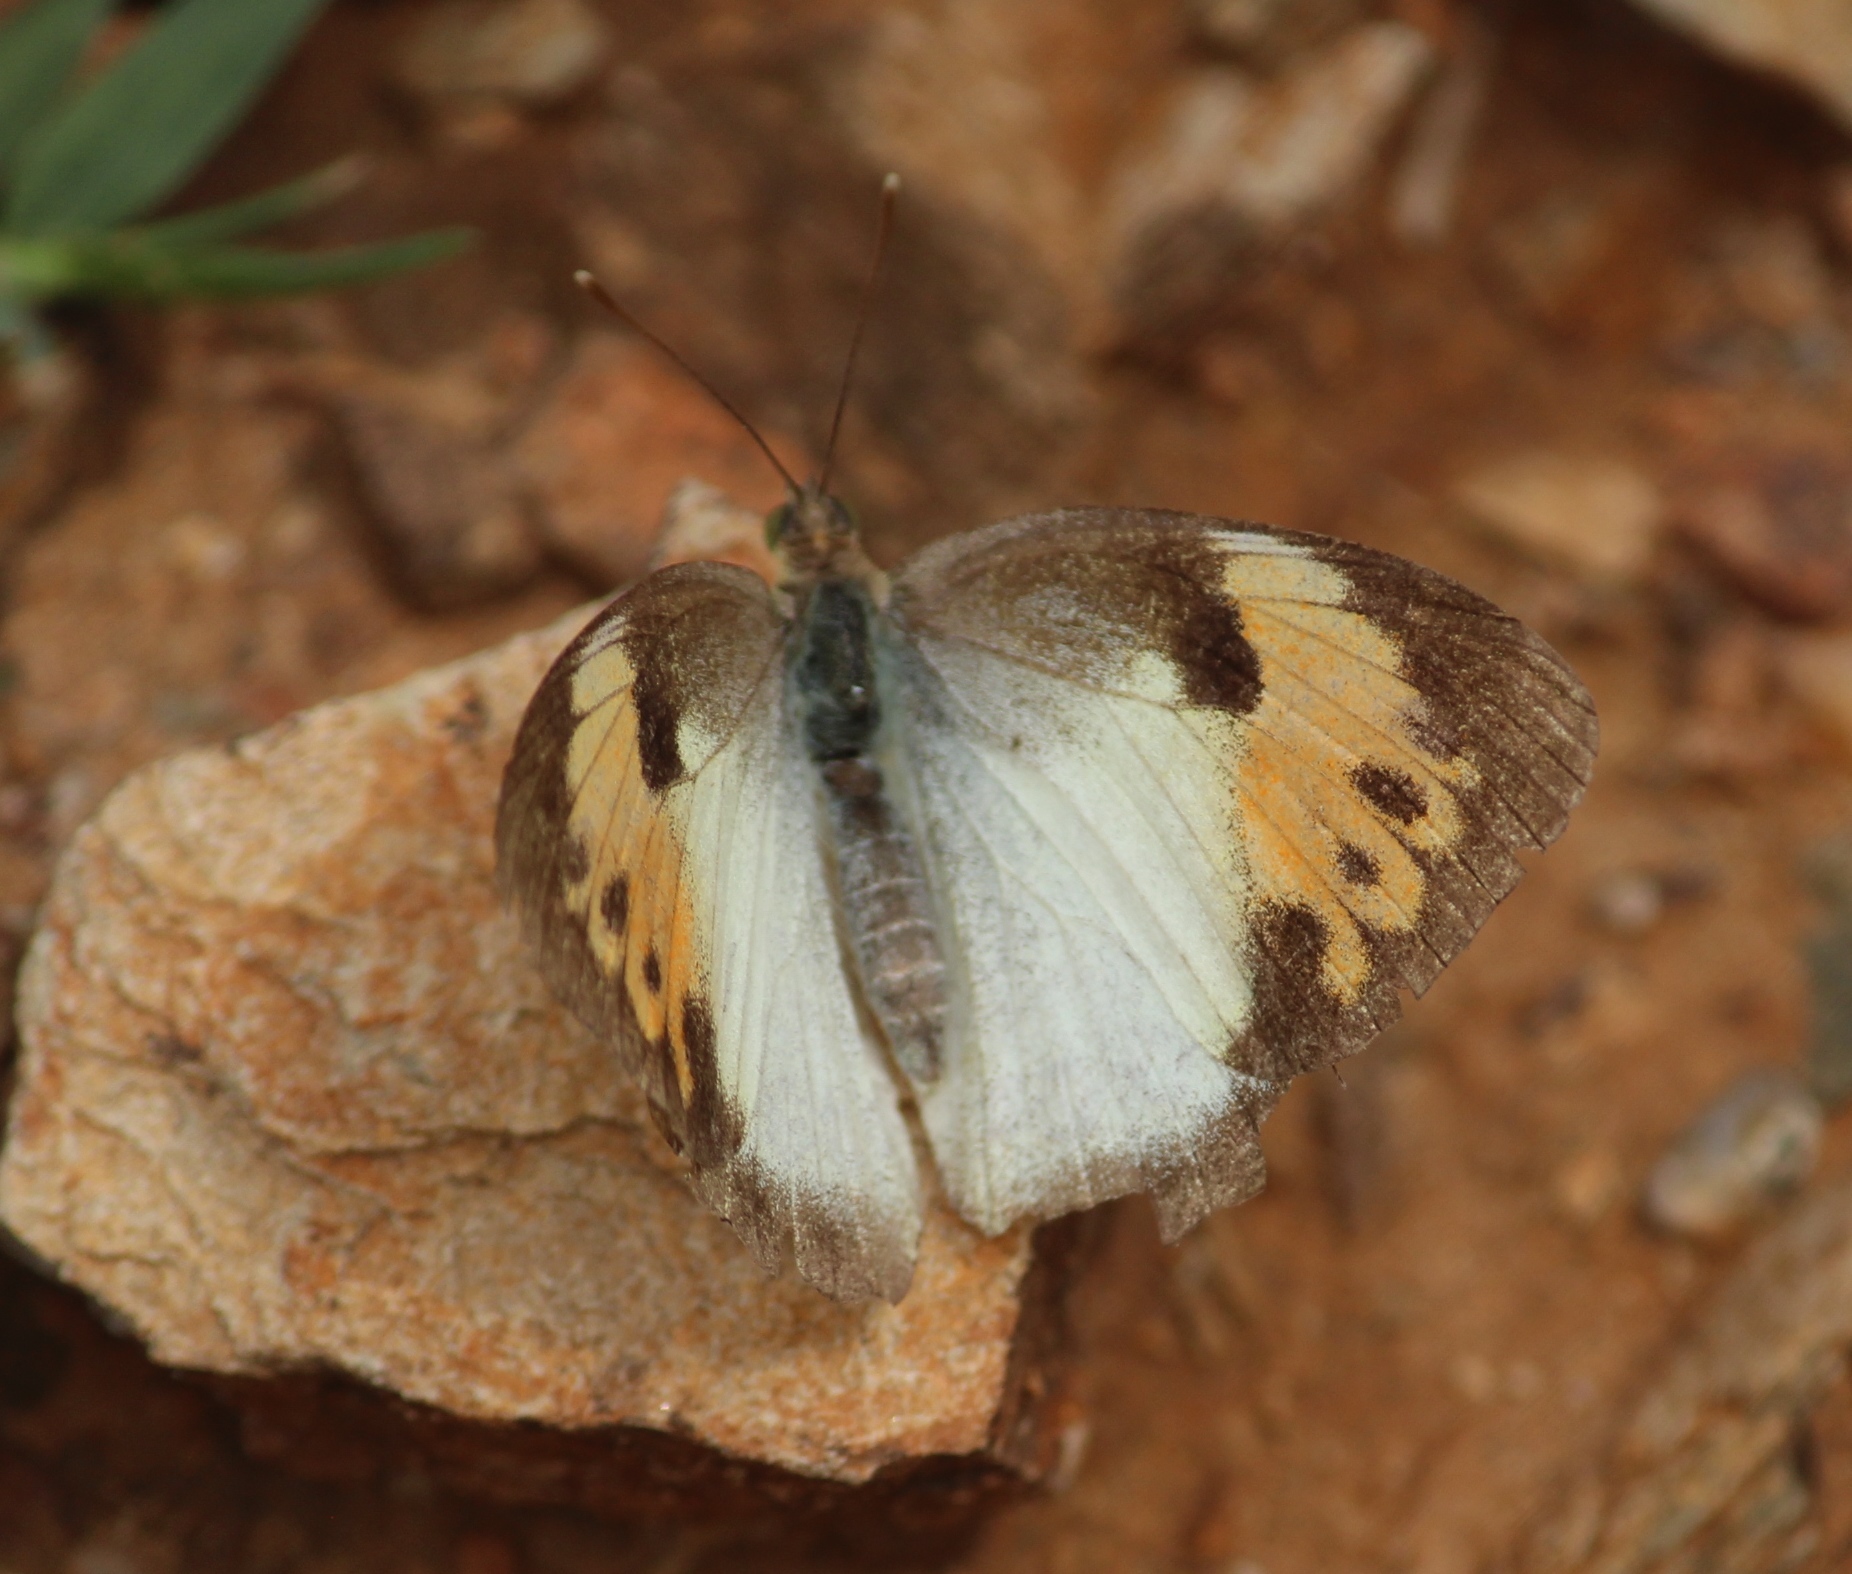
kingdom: Animalia
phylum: Arthropoda
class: Insecta
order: Lepidoptera
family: Pieridae
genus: Ixias
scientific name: Ixias marianne
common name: White orange tip
